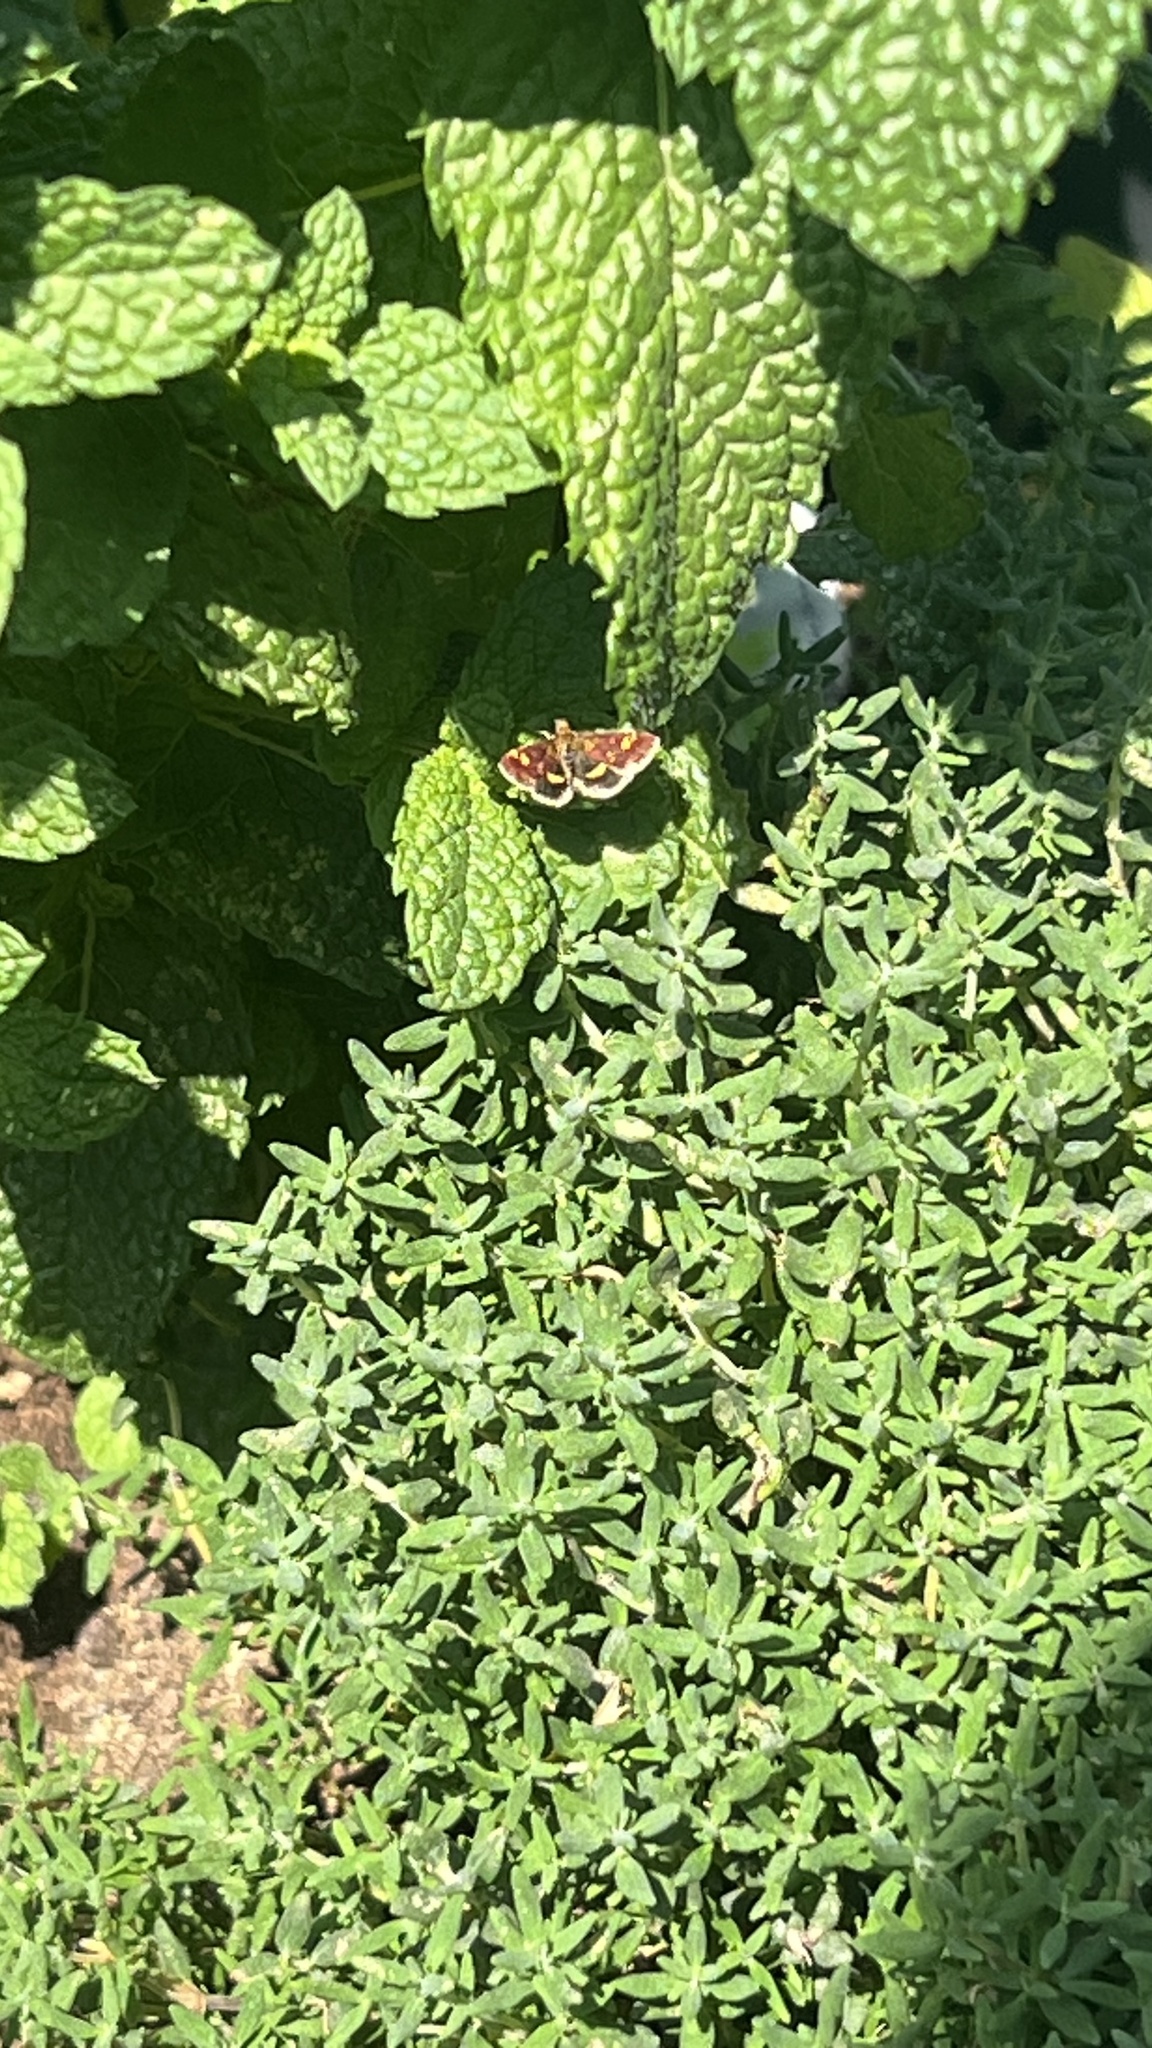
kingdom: Animalia
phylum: Arthropoda
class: Insecta
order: Lepidoptera
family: Crambidae
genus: Pyrausta
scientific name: Pyrausta aurata
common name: Small purple & gold
